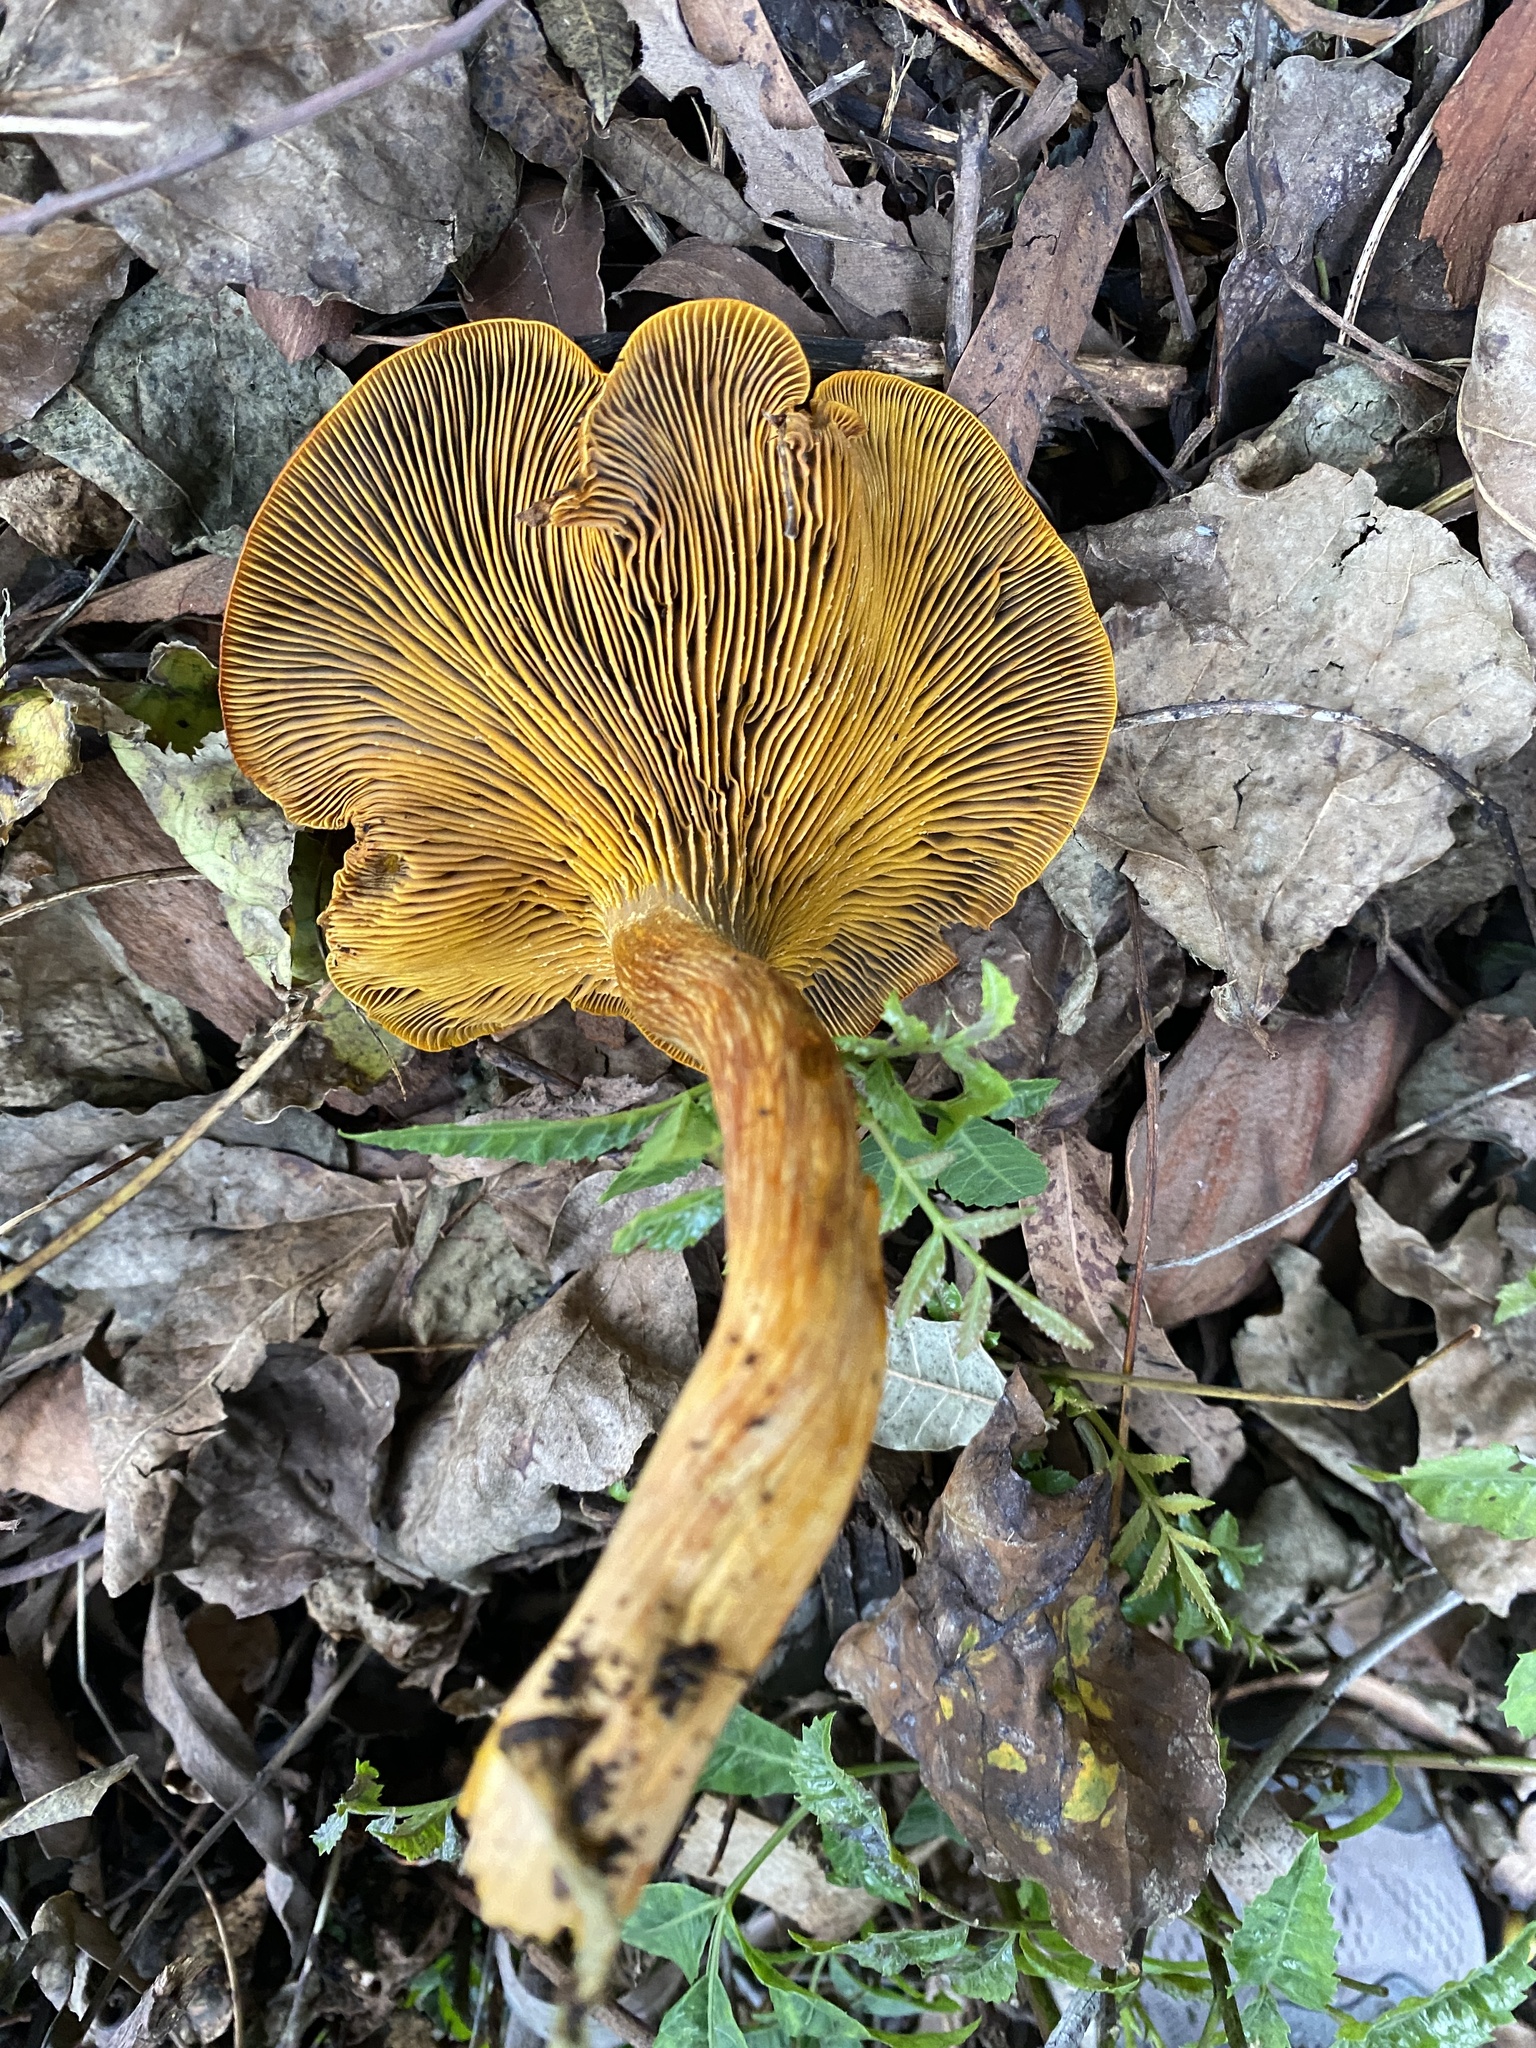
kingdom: Fungi
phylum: Basidiomycota
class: Agaricomycetes
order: Agaricales
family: Omphalotaceae
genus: Omphalotus
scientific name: Omphalotus olivascens
